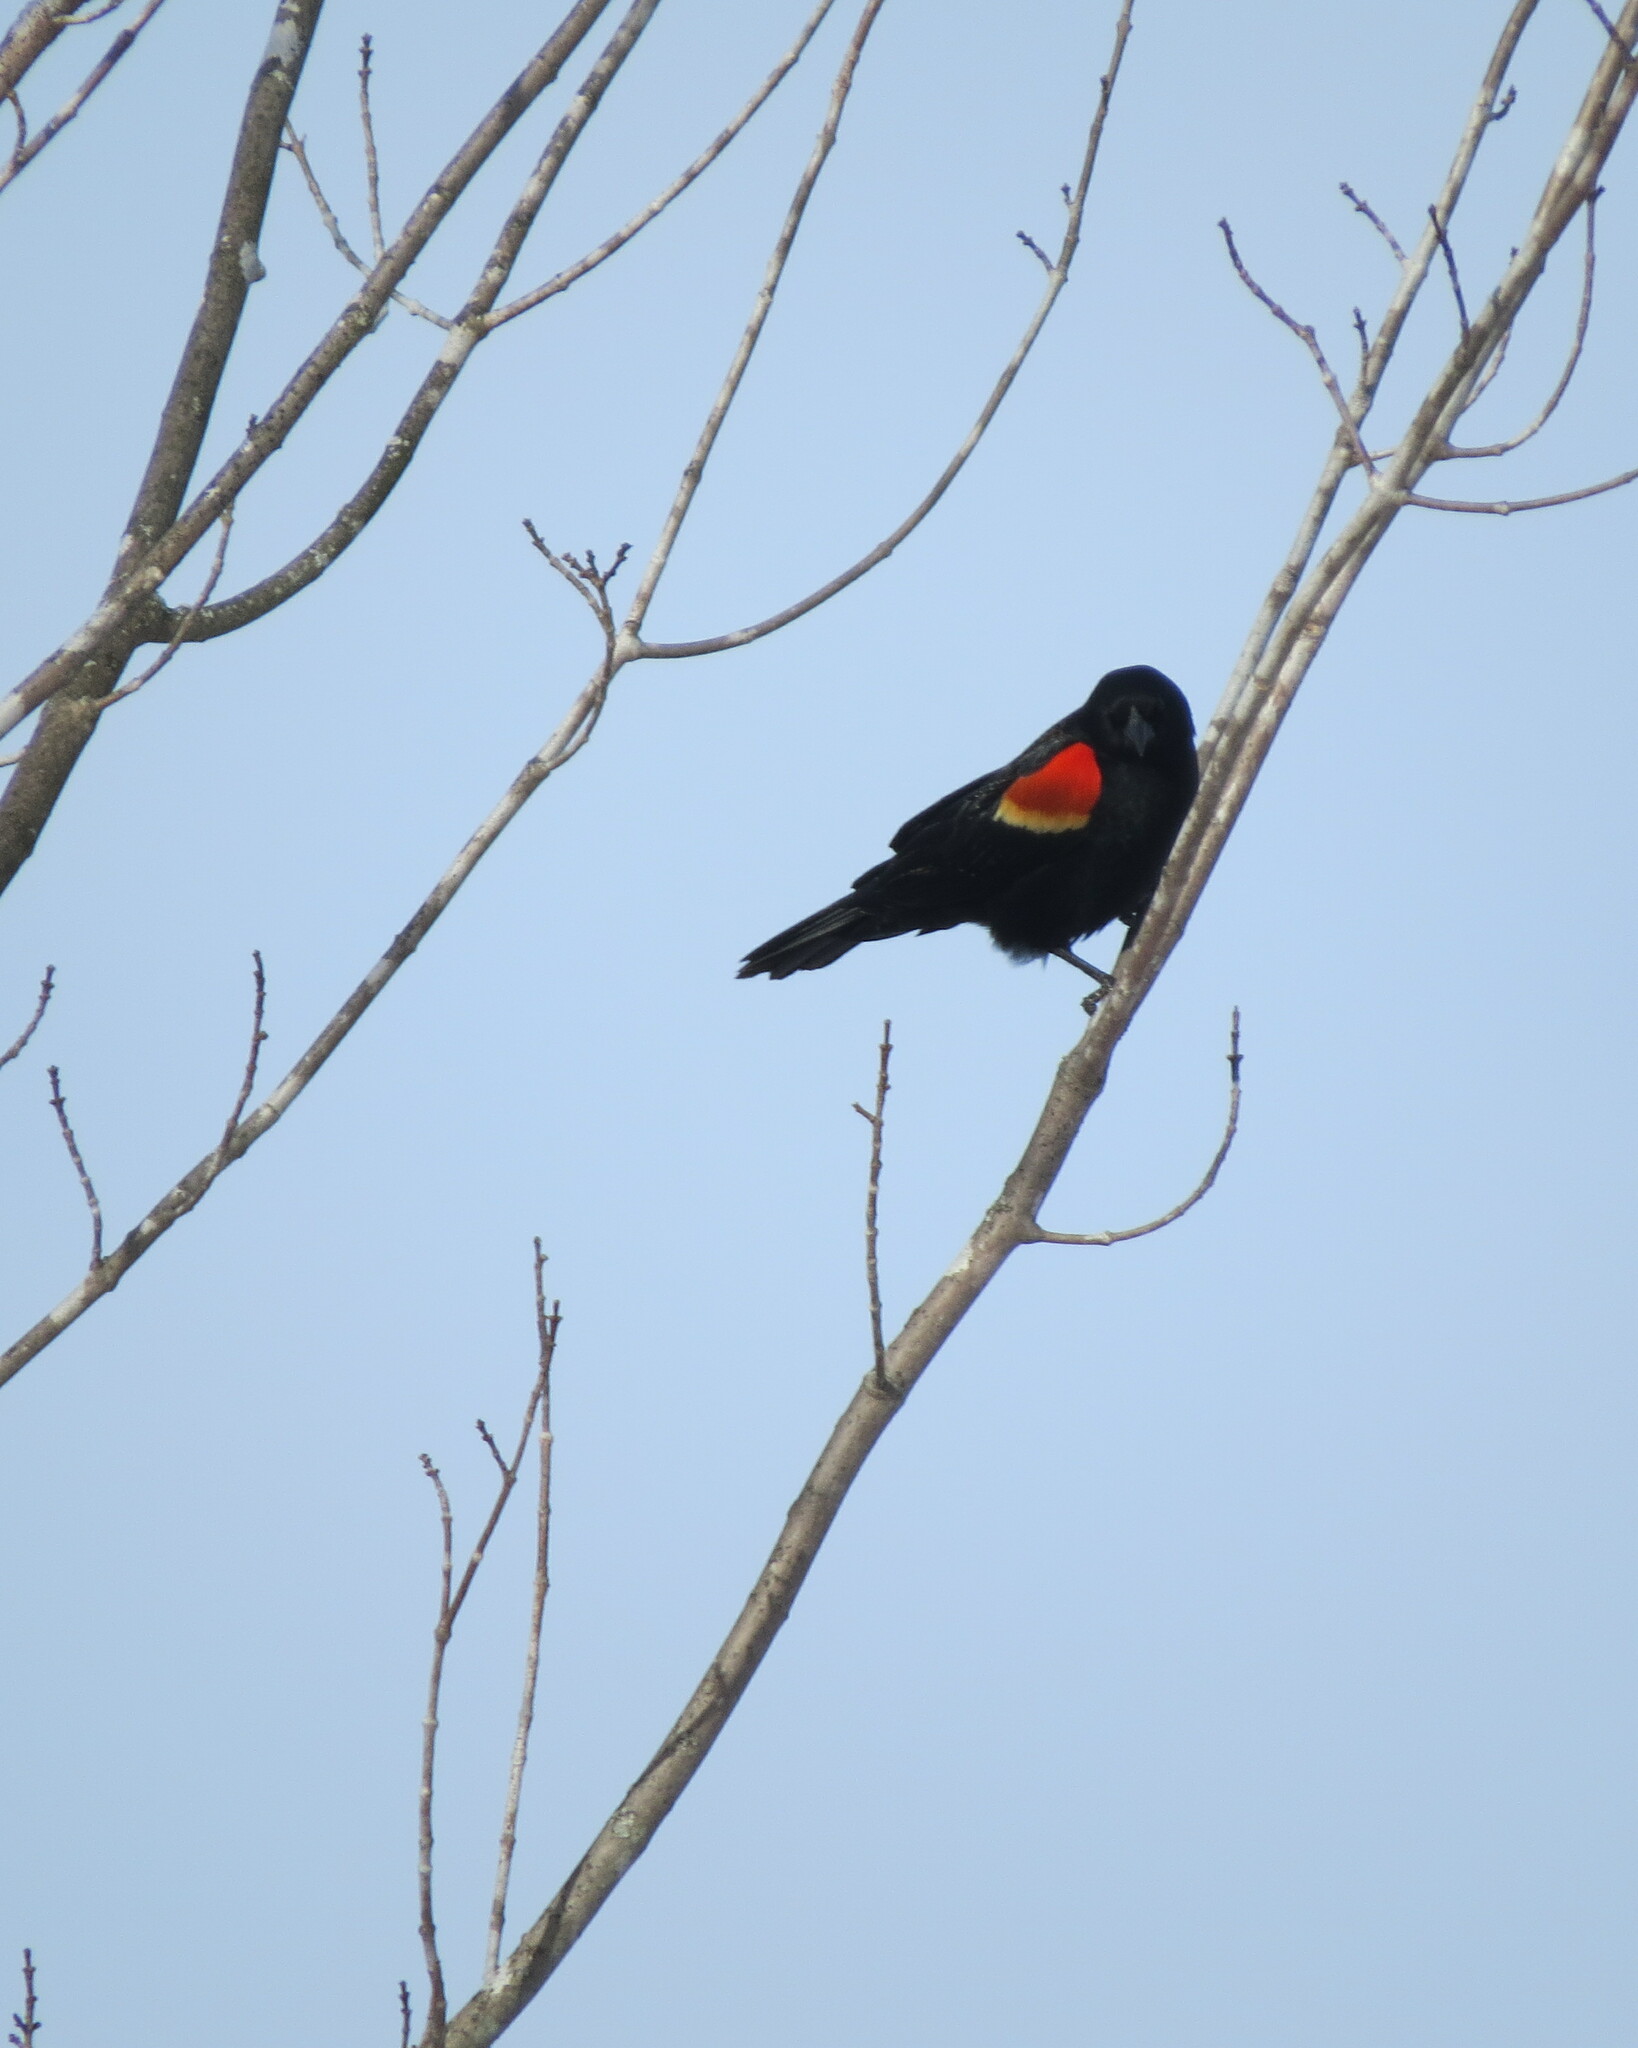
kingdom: Animalia
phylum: Chordata
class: Aves
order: Passeriformes
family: Icteridae
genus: Agelaius
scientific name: Agelaius phoeniceus
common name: Red-winged blackbird
